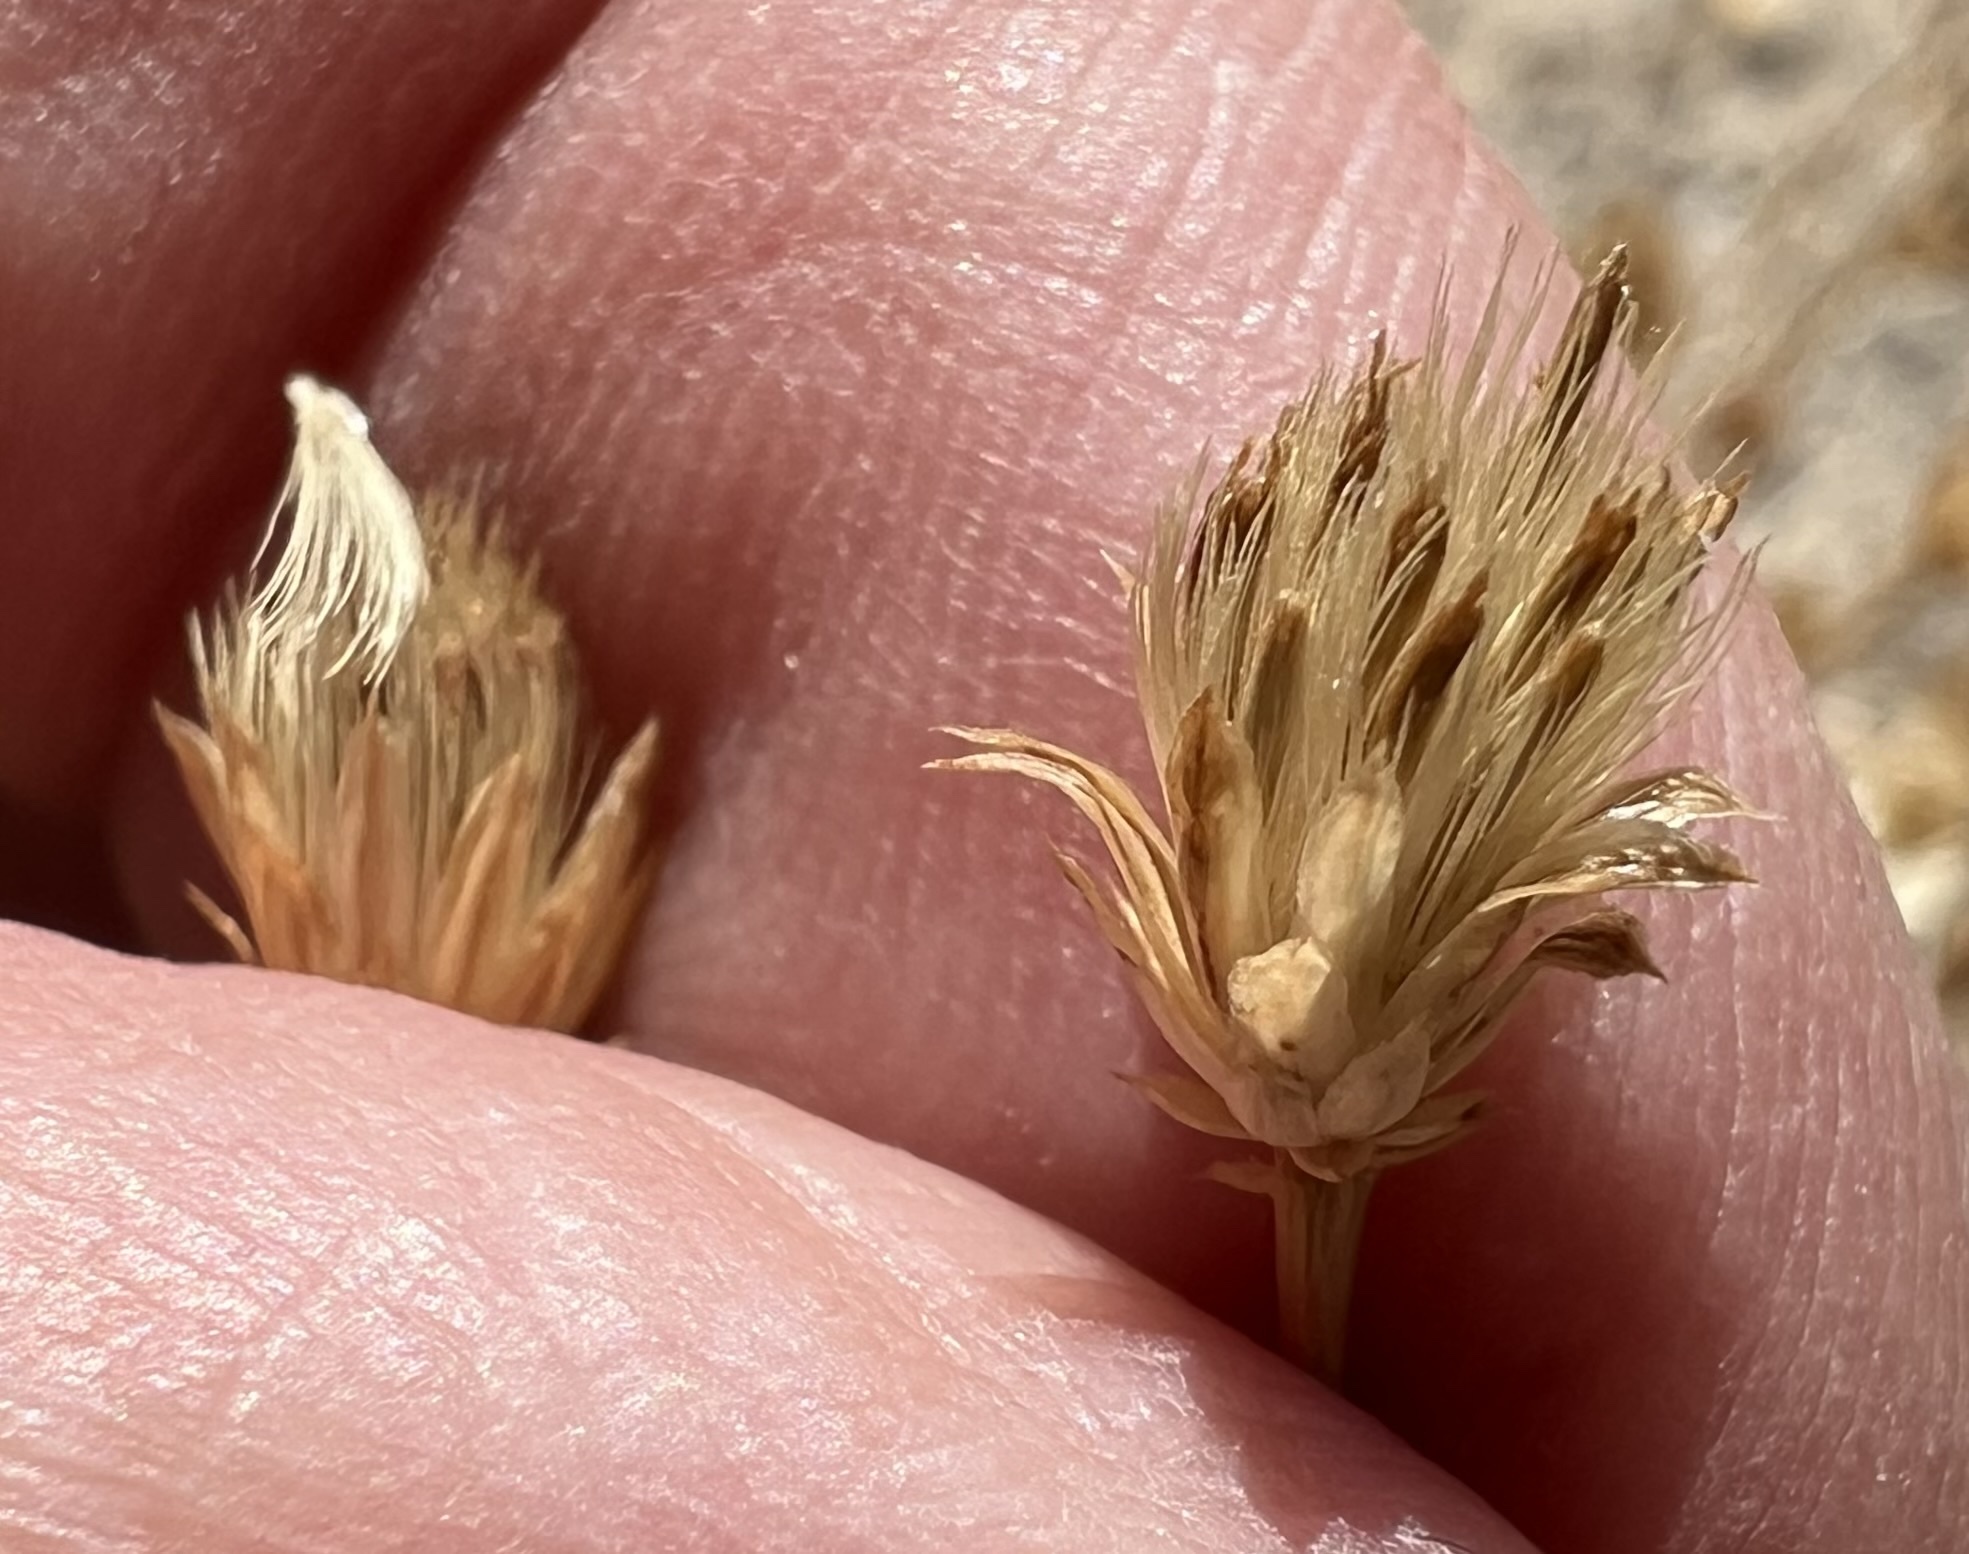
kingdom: Plantae
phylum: Tracheophyta
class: Magnoliopsida
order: Asterales
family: Asteraceae
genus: Leucosyris
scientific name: Leucosyris carnosa
